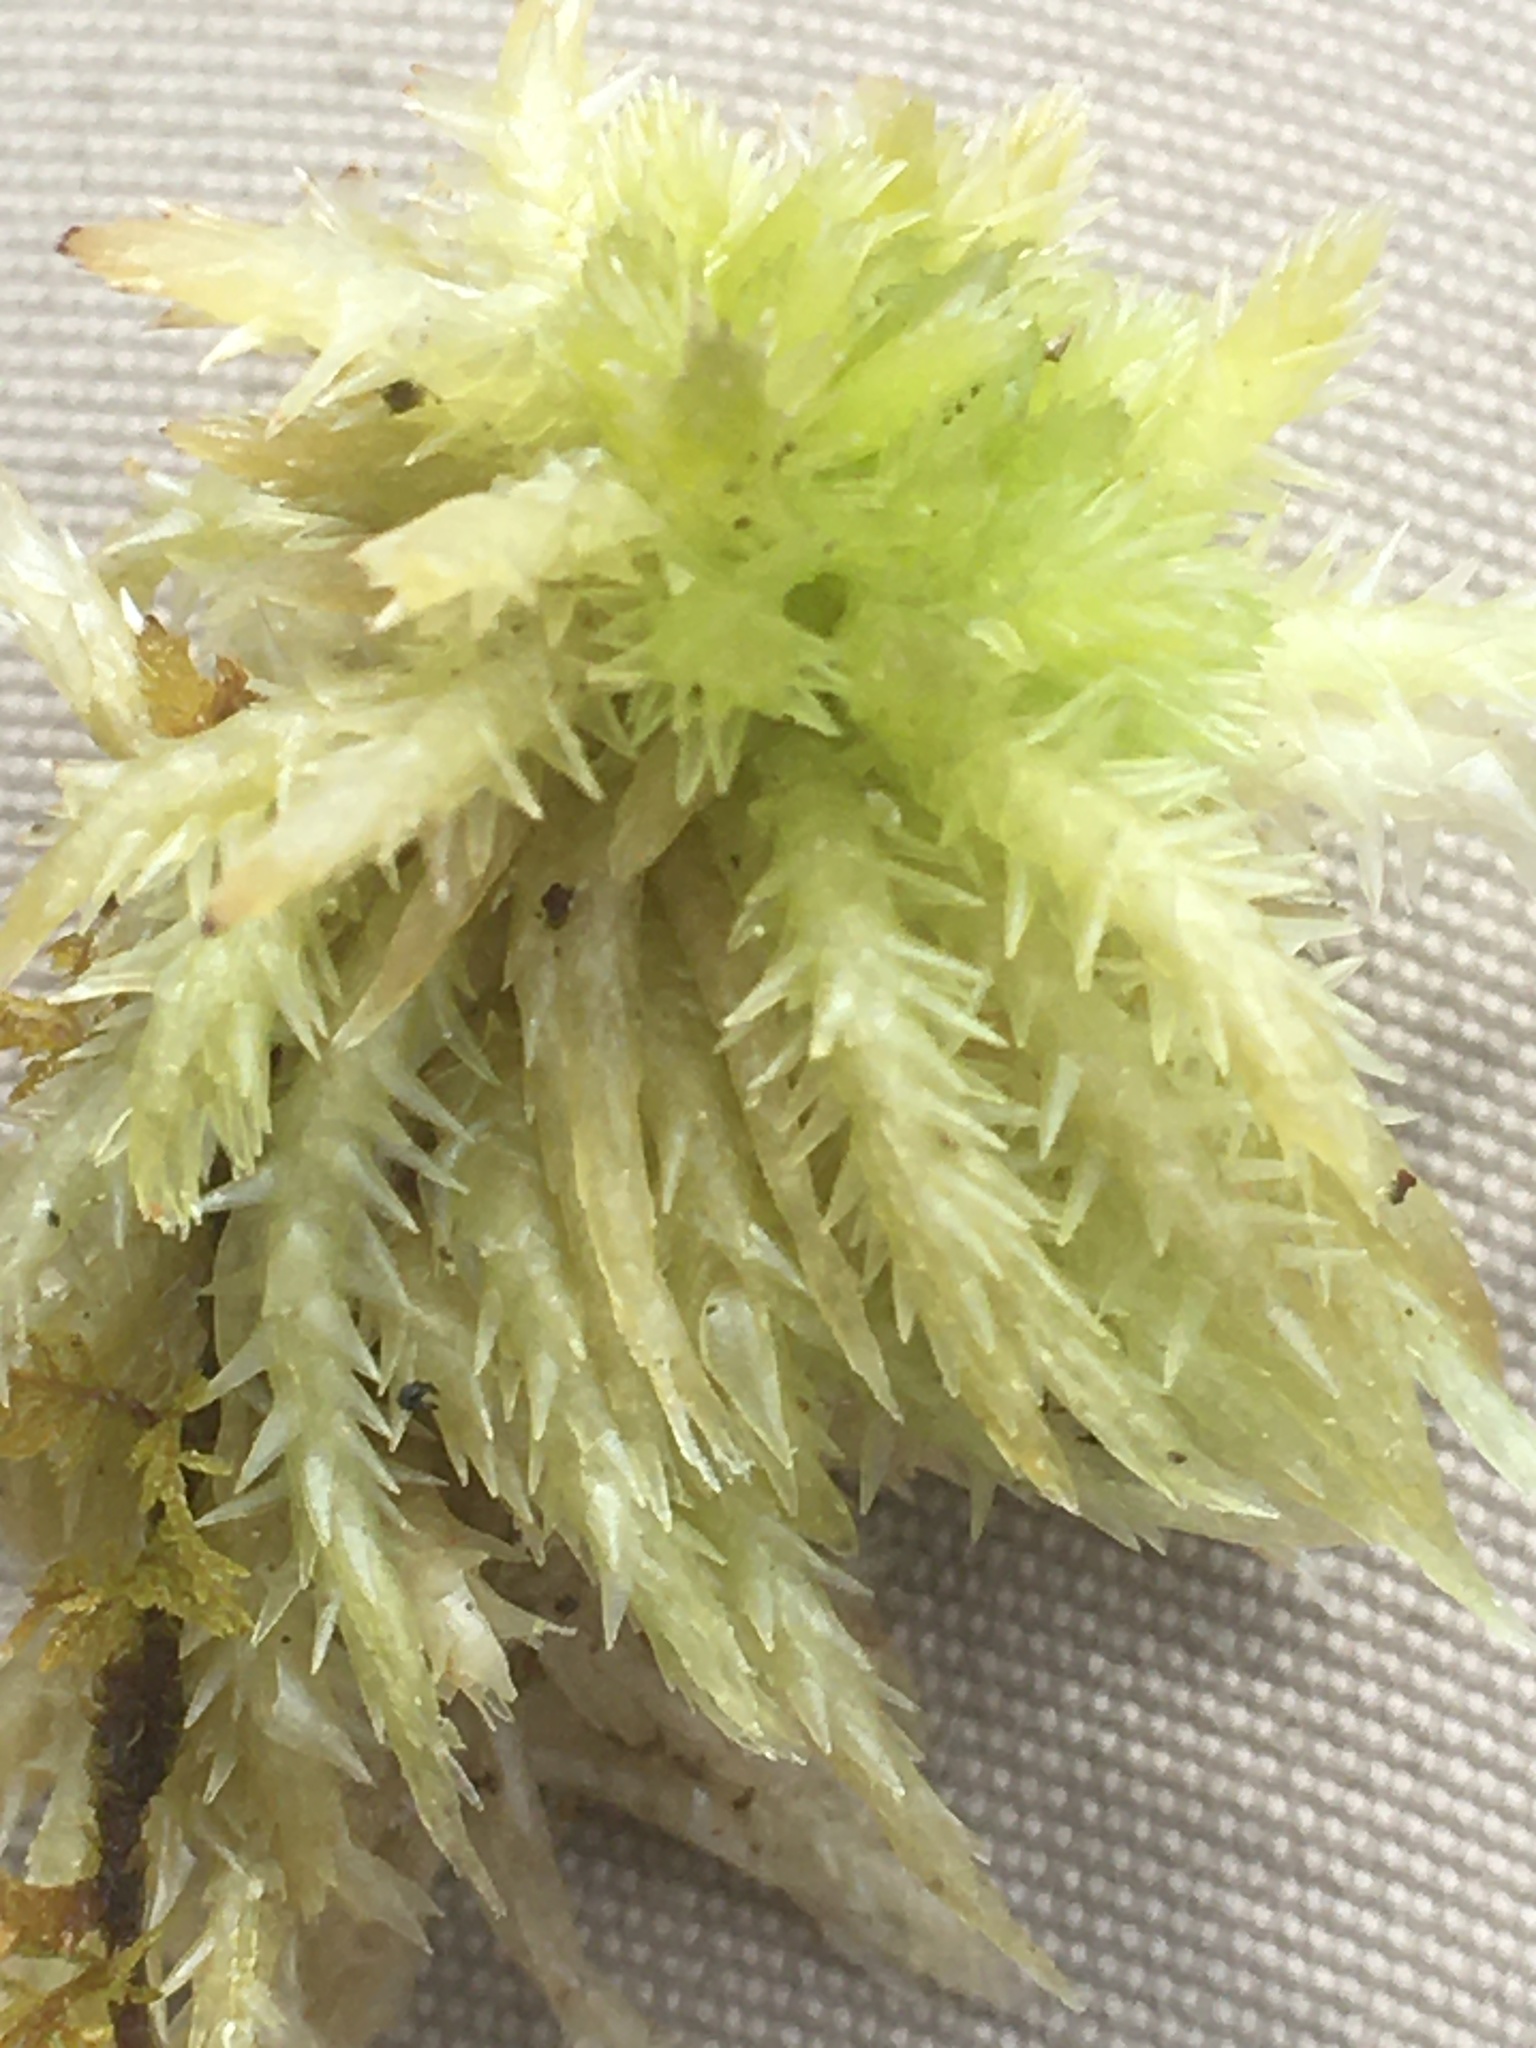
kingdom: Plantae
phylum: Bryophyta
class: Sphagnopsida
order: Sphagnales
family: Sphagnaceae
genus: Sphagnum
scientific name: Sphagnum
